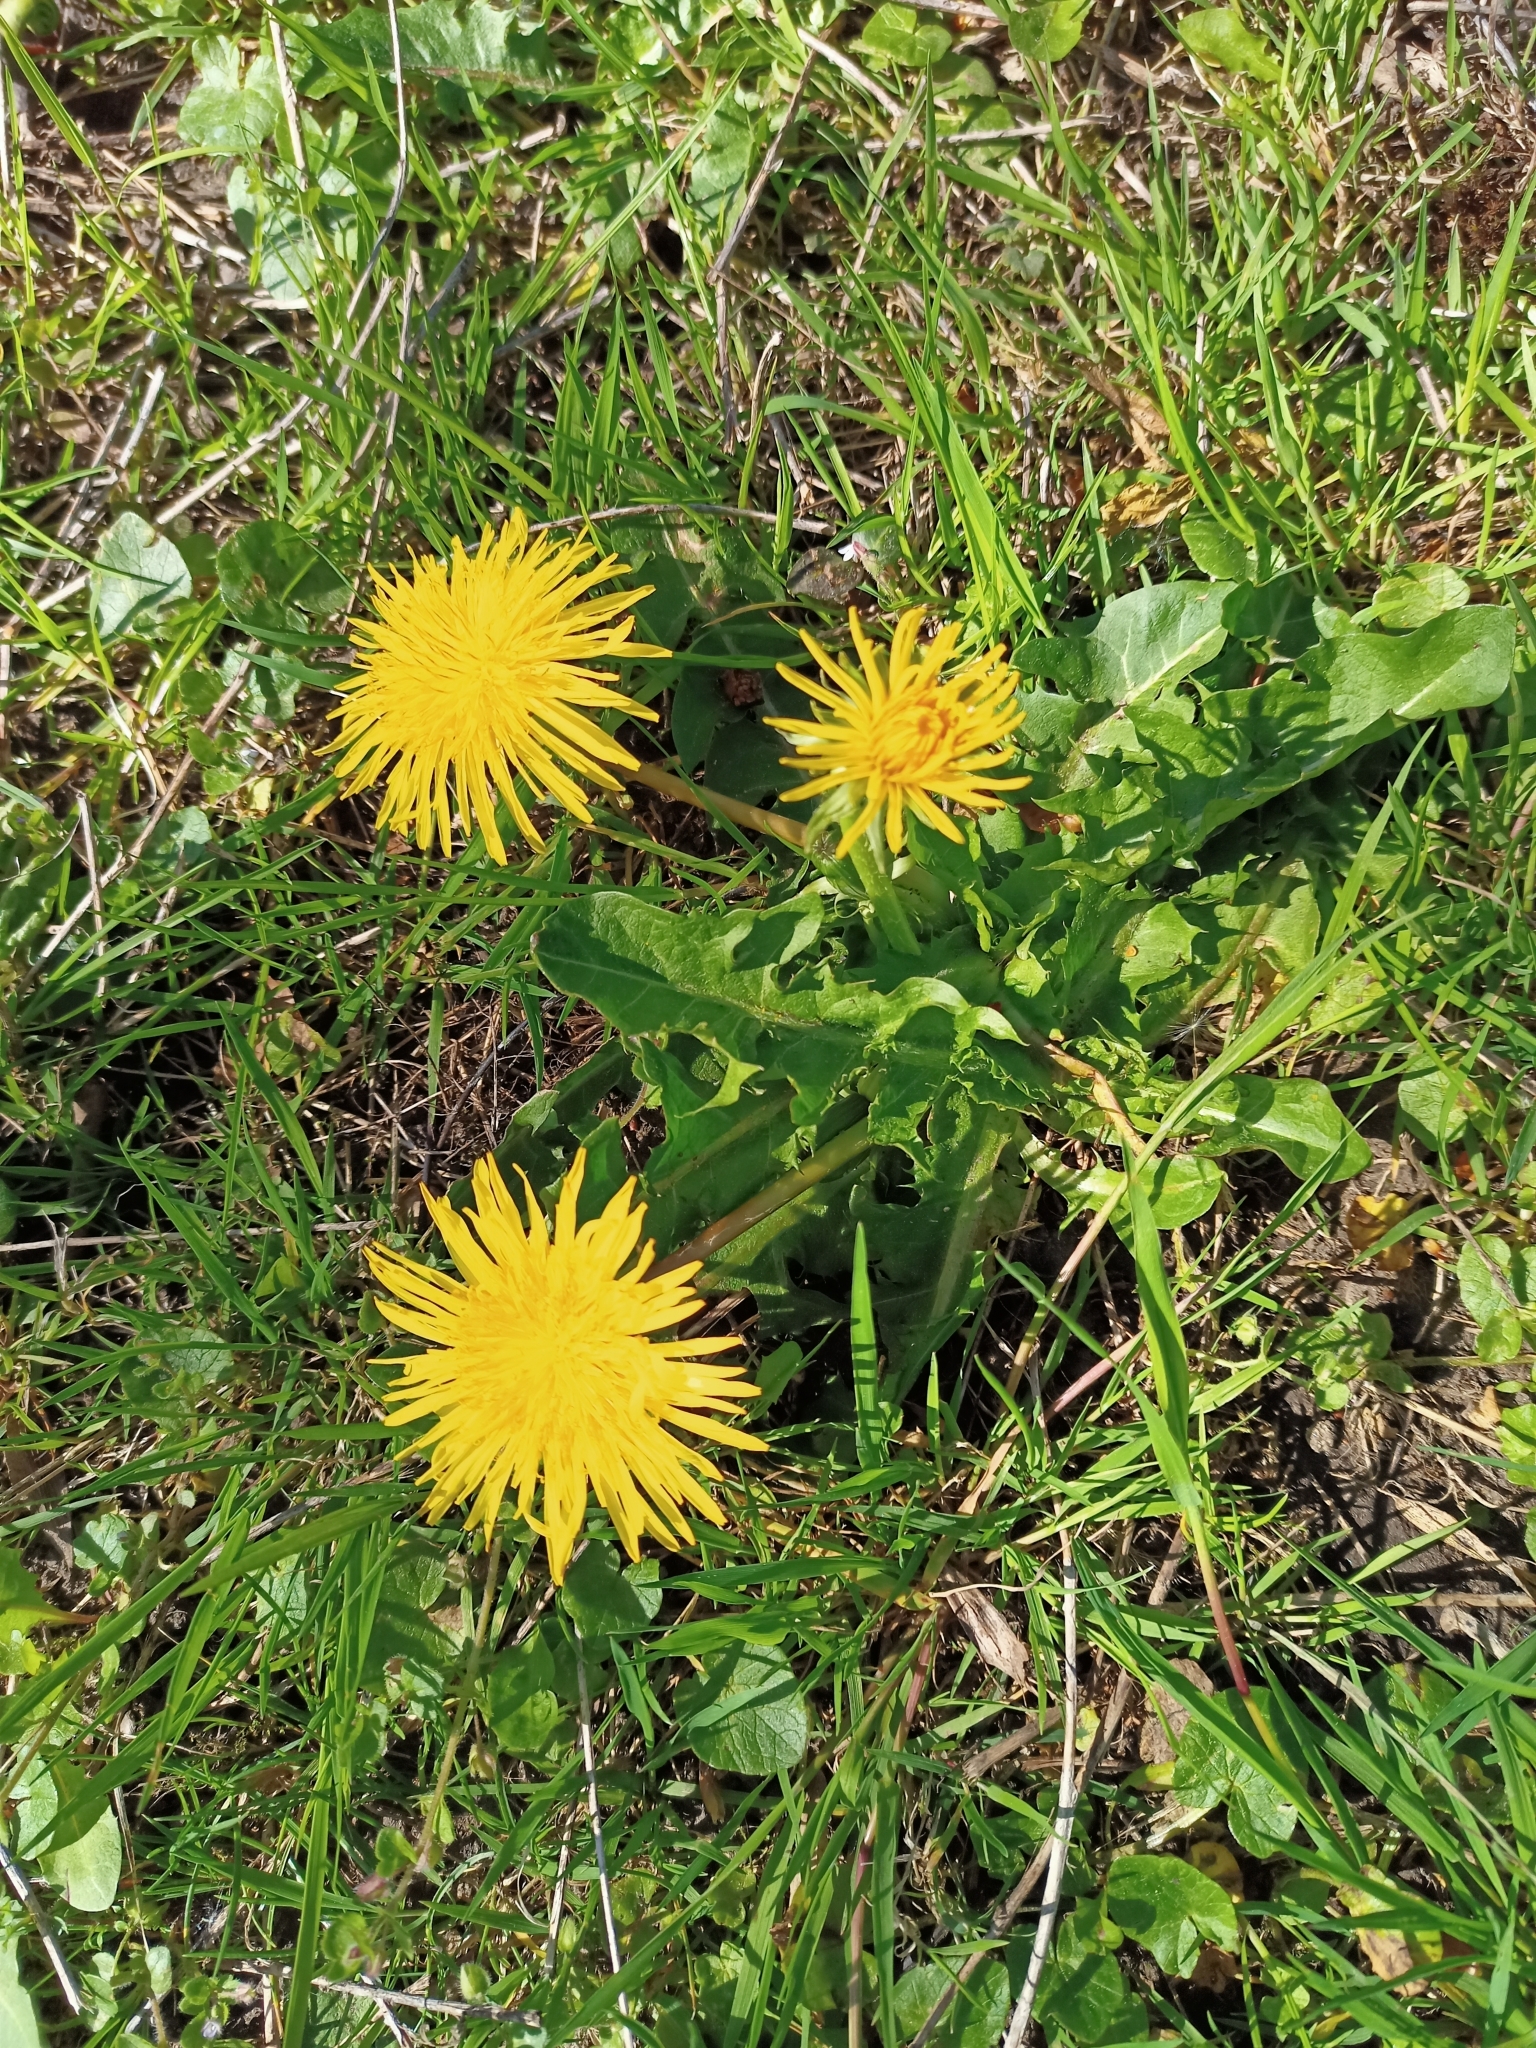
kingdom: Plantae
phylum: Tracheophyta
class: Magnoliopsida
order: Asterales
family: Asteraceae
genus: Taraxacum
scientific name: Taraxacum officinale
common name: Common dandelion
